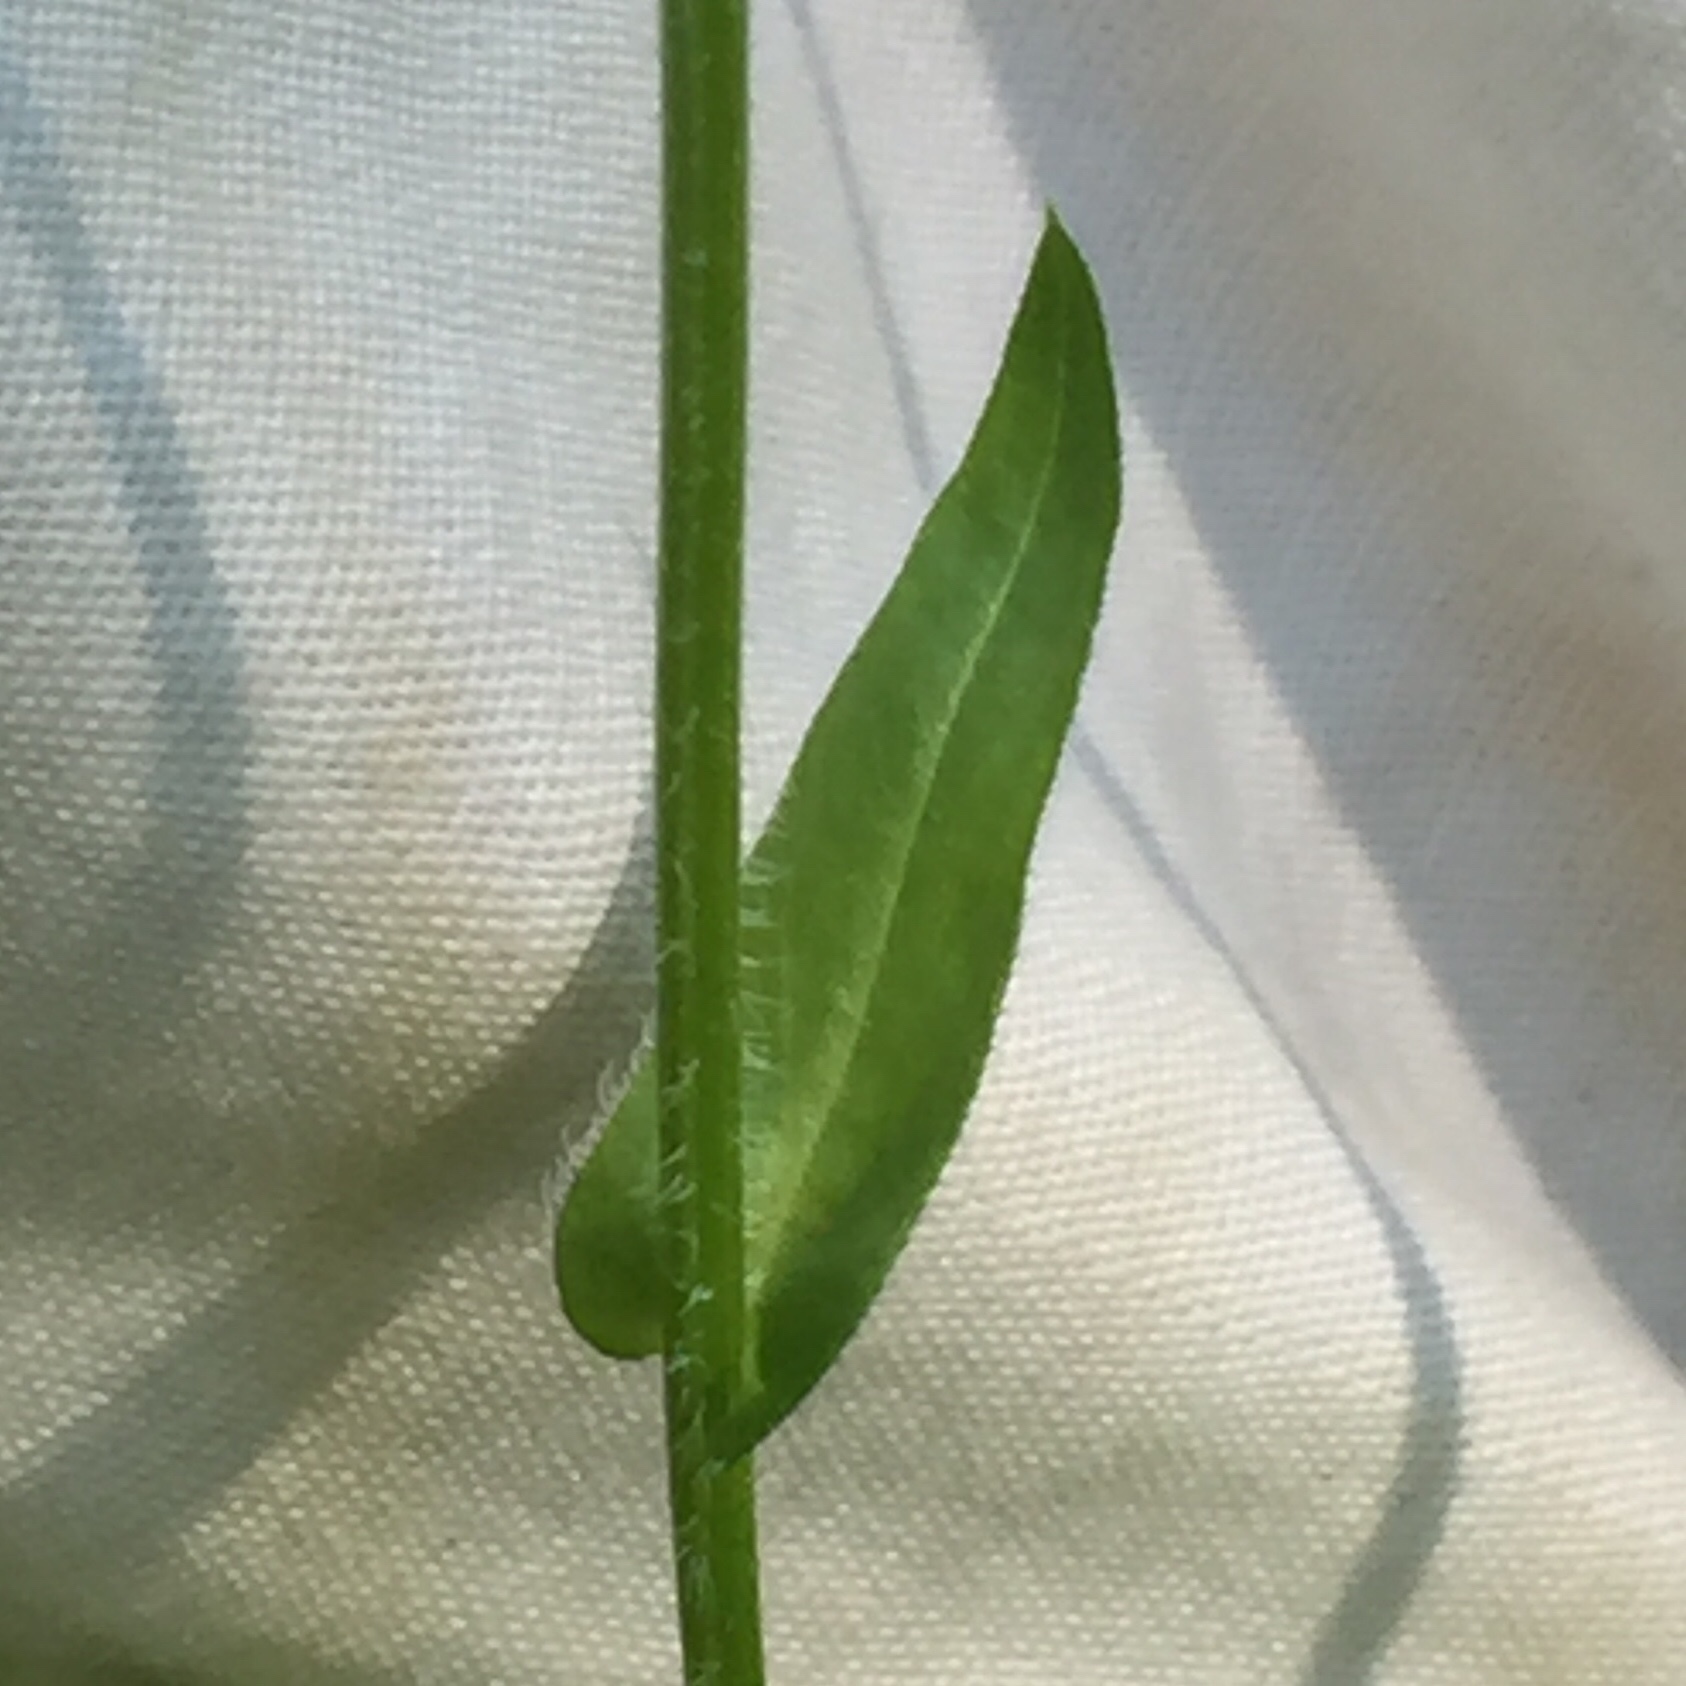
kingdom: Plantae
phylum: Tracheophyta
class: Magnoliopsida
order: Asterales
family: Asteraceae
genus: Erigeron
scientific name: Erigeron philadelphicus
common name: Robin's-plantain
